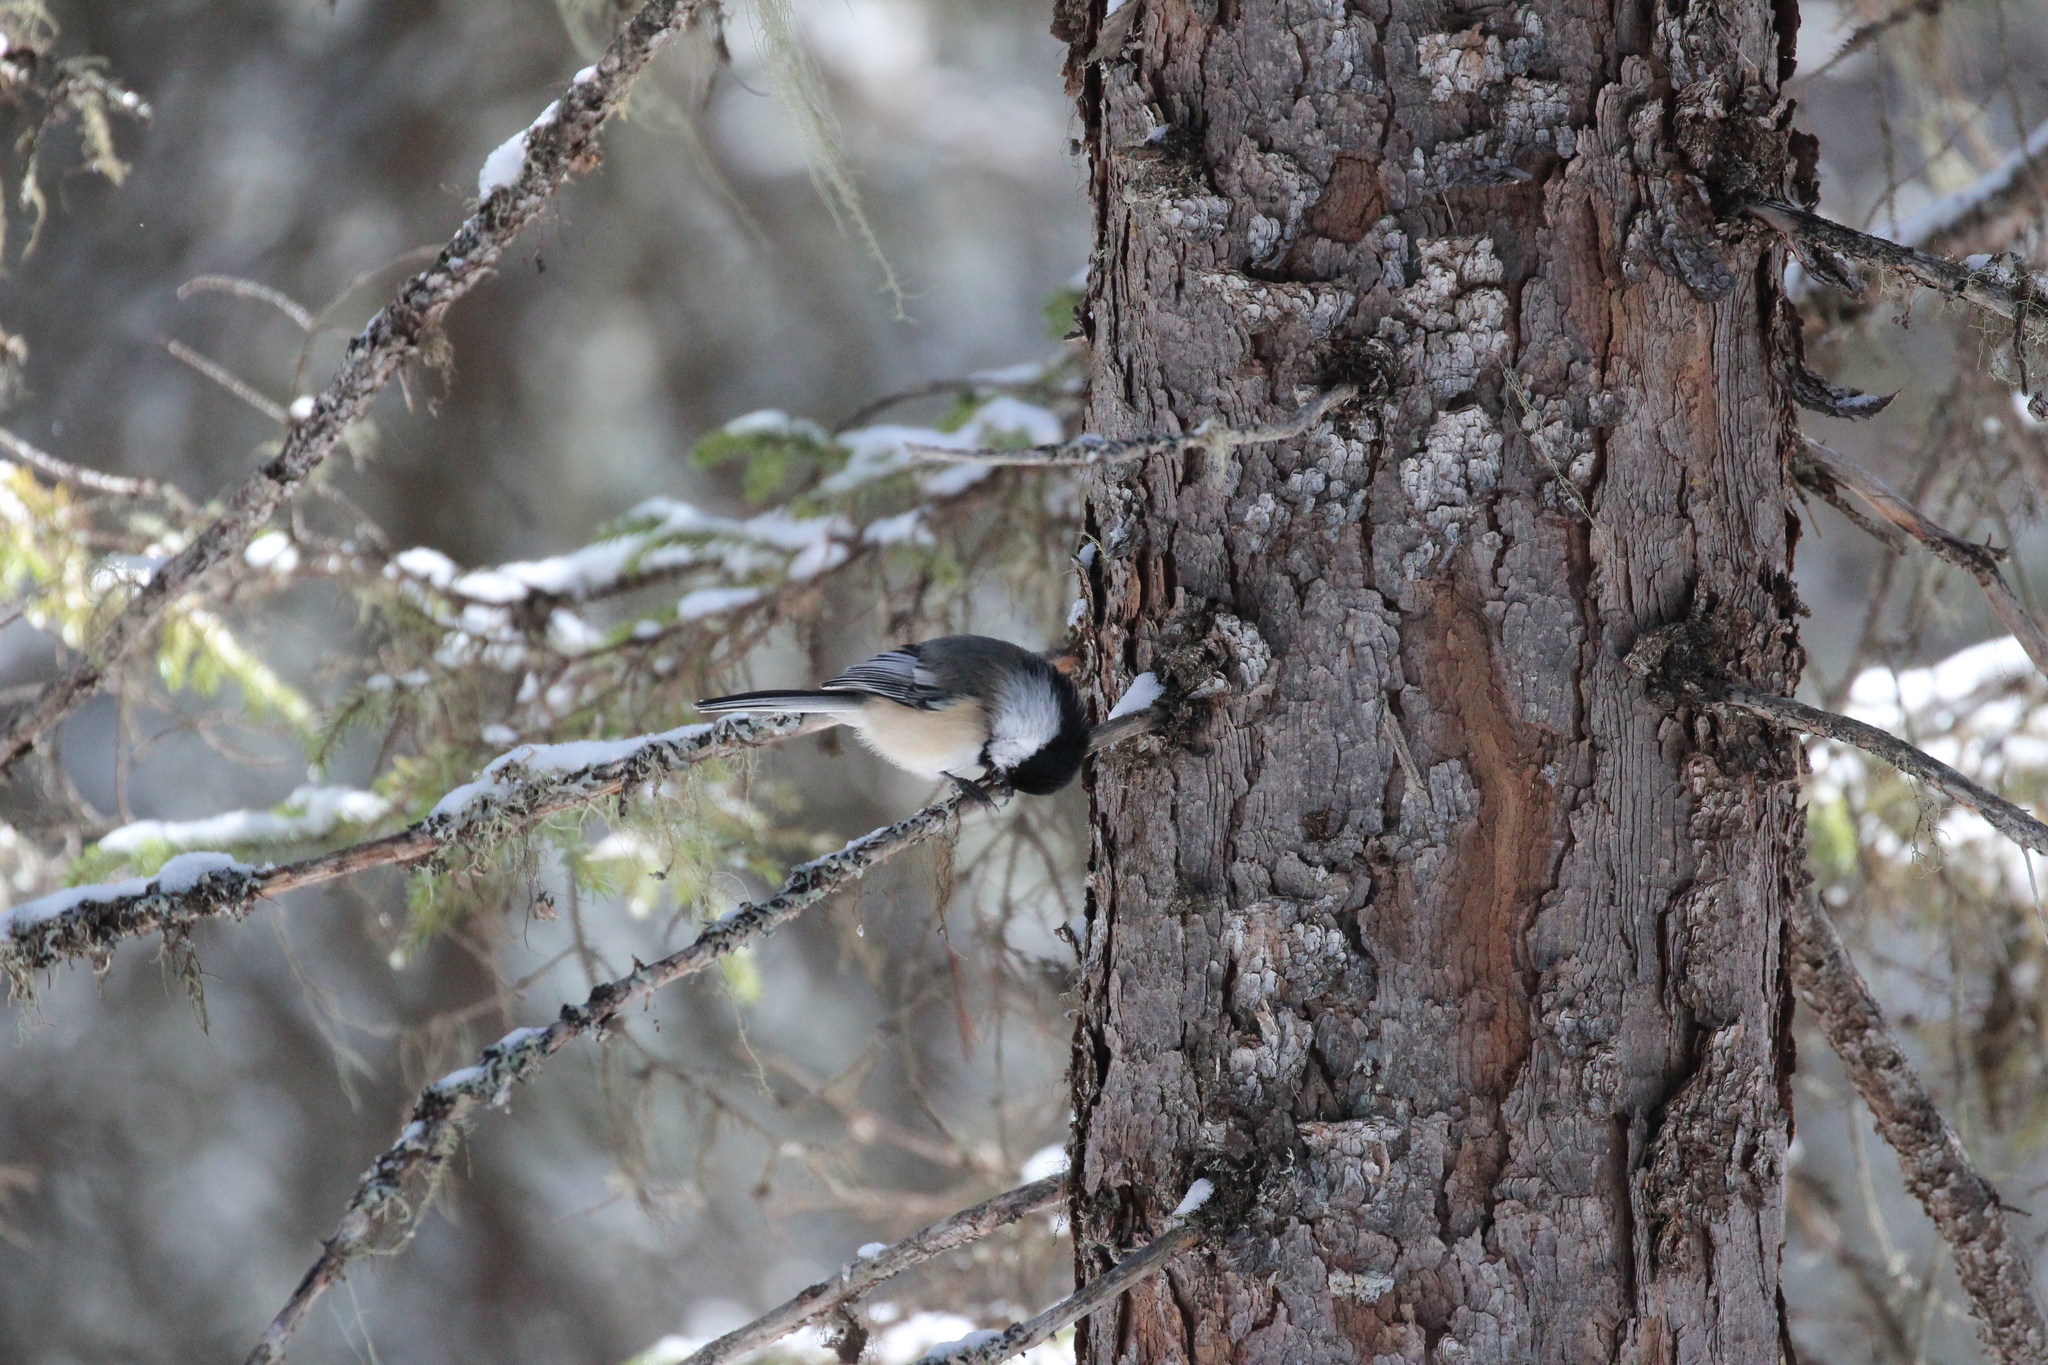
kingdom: Animalia
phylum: Chordata
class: Aves
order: Passeriformes
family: Paridae
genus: Poecile
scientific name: Poecile atricapillus
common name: Black-capped chickadee
